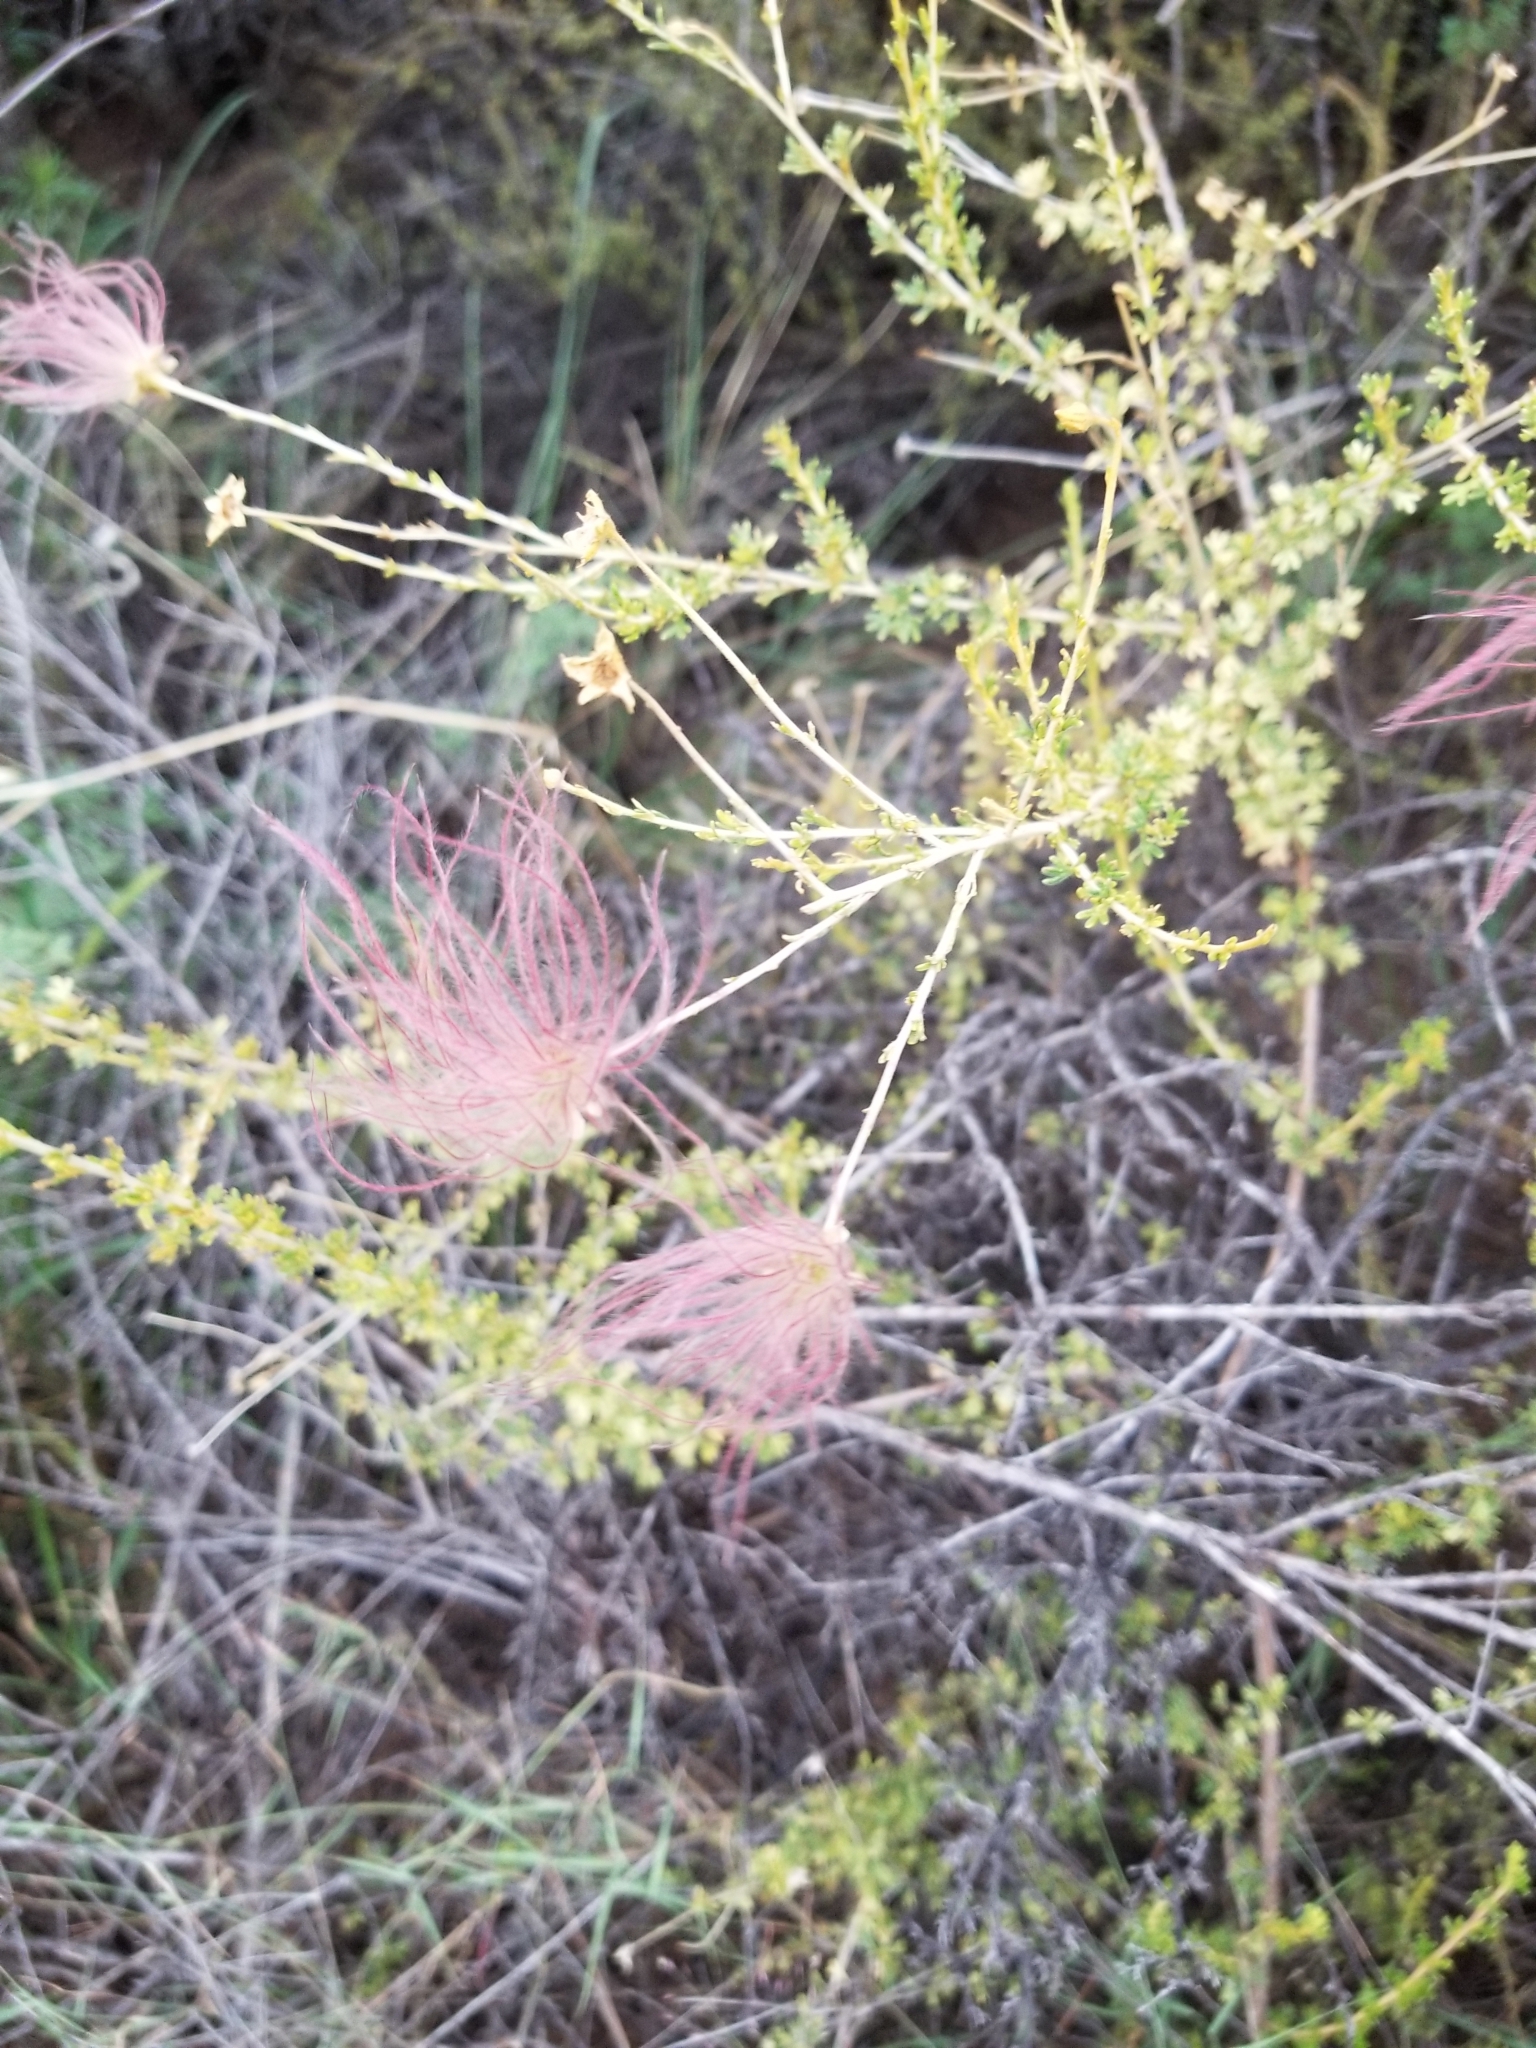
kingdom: Plantae
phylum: Tracheophyta
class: Magnoliopsida
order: Rosales
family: Rosaceae
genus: Fallugia
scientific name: Fallugia paradoxa
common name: Apache-plume
